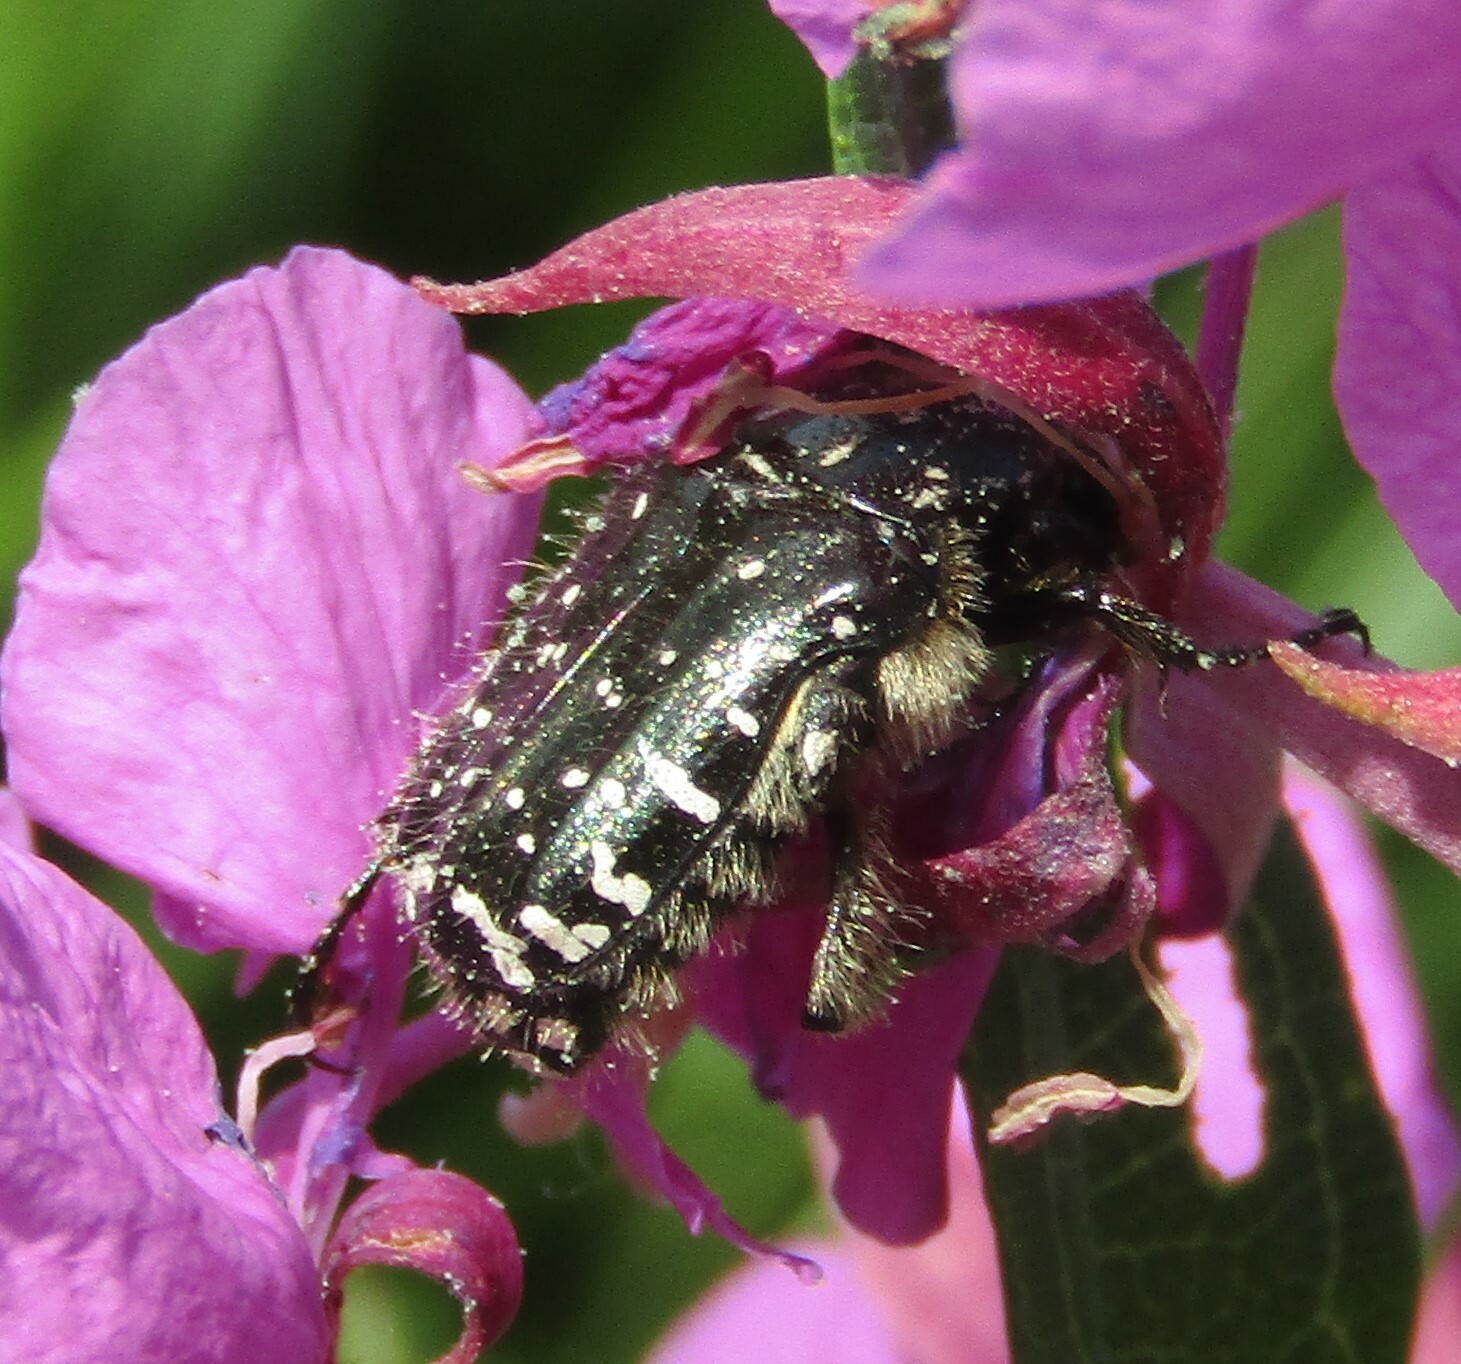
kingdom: Animalia
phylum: Arthropoda
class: Insecta
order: Coleoptera
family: Scarabaeidae
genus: Oxythyrea
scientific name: Oxythyrea funesta
